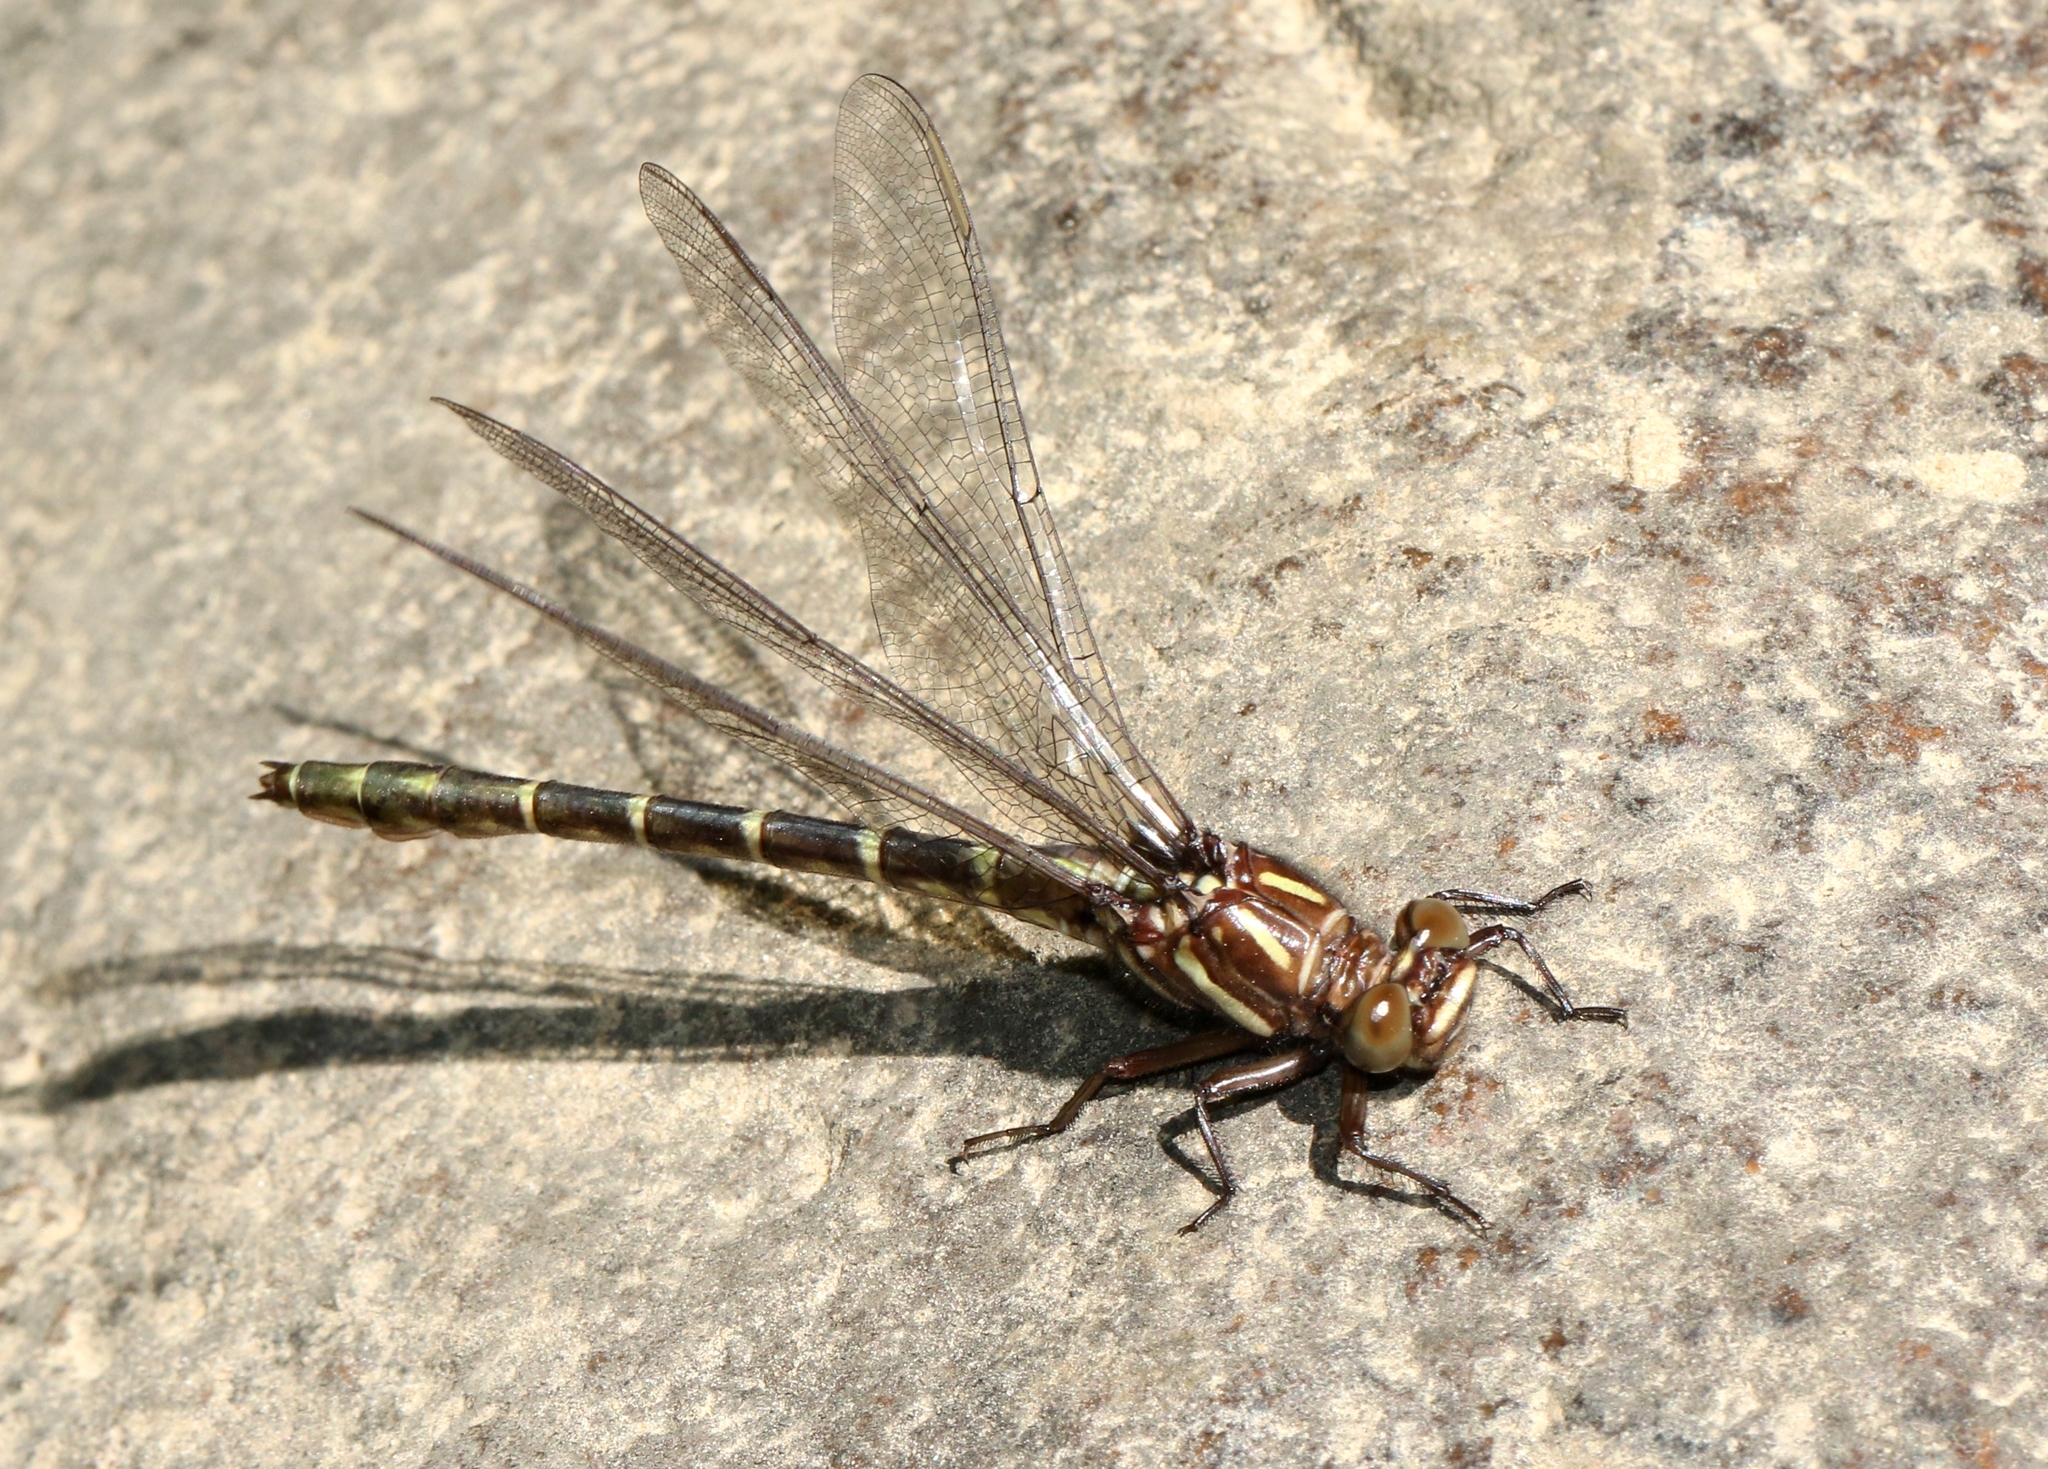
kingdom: Animalia
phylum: Arthropoda
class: Insecta
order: Odonata
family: Gomphidae
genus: Stylurus
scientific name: Stylurus scudderi
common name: Zebra clubtail
